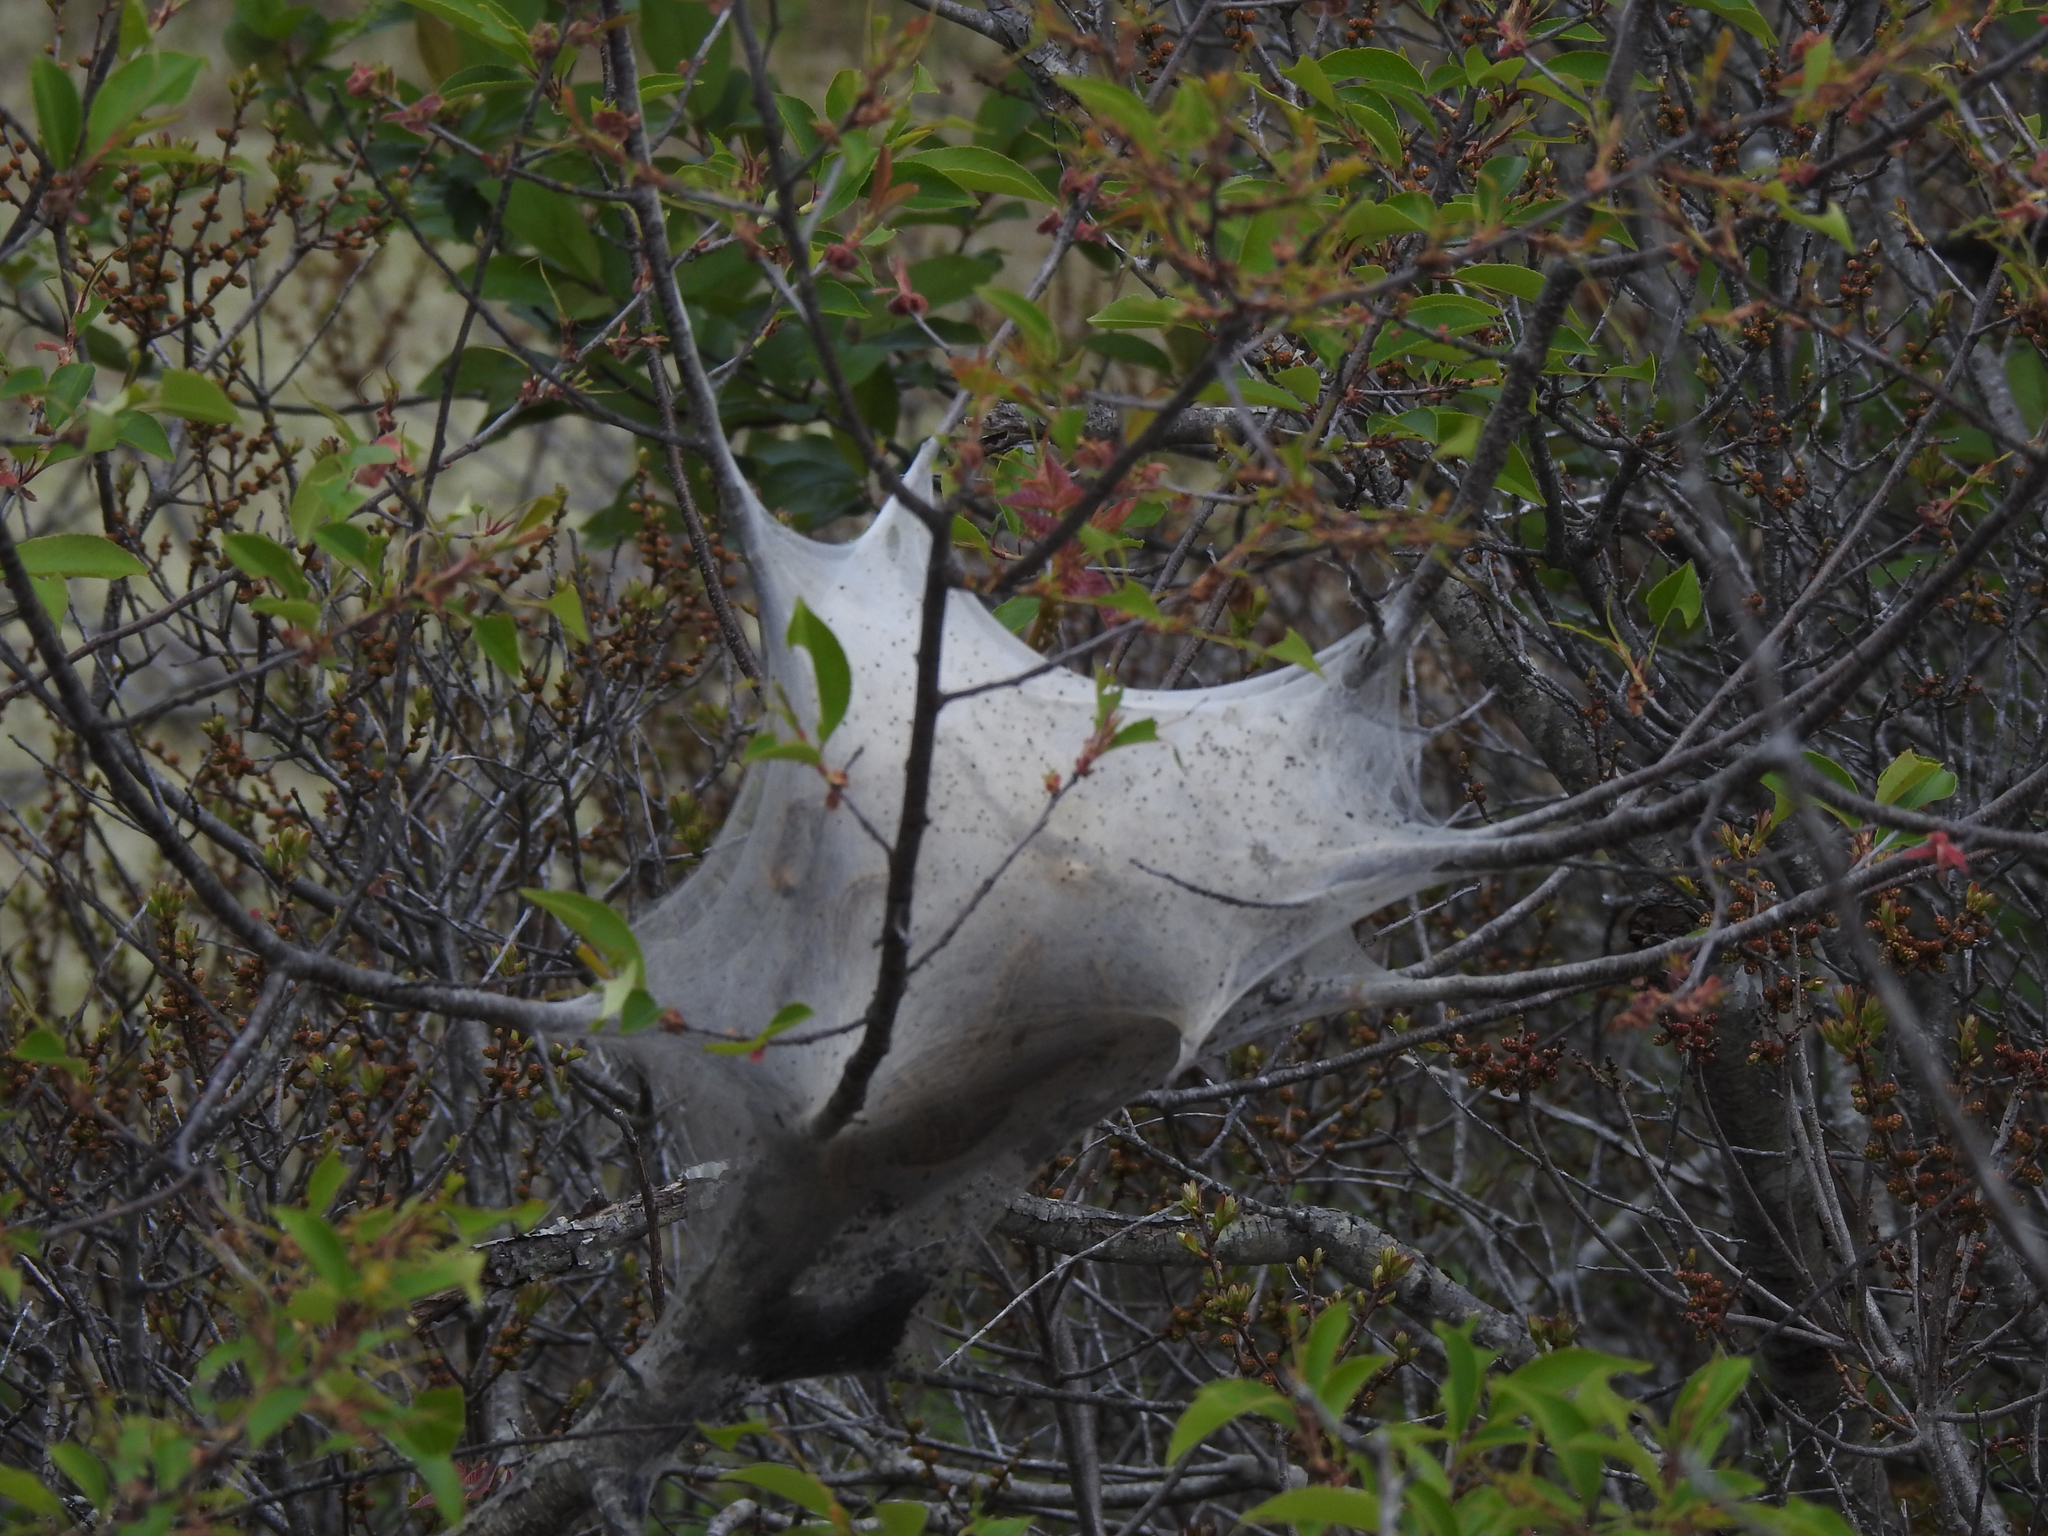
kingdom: Animalia
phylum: Arthropoda
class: Insecta
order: Lepidoptera
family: Lasiocampidae
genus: Malacosoma
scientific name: Malacosoma americana
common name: Eastern tent caterpillar moth
